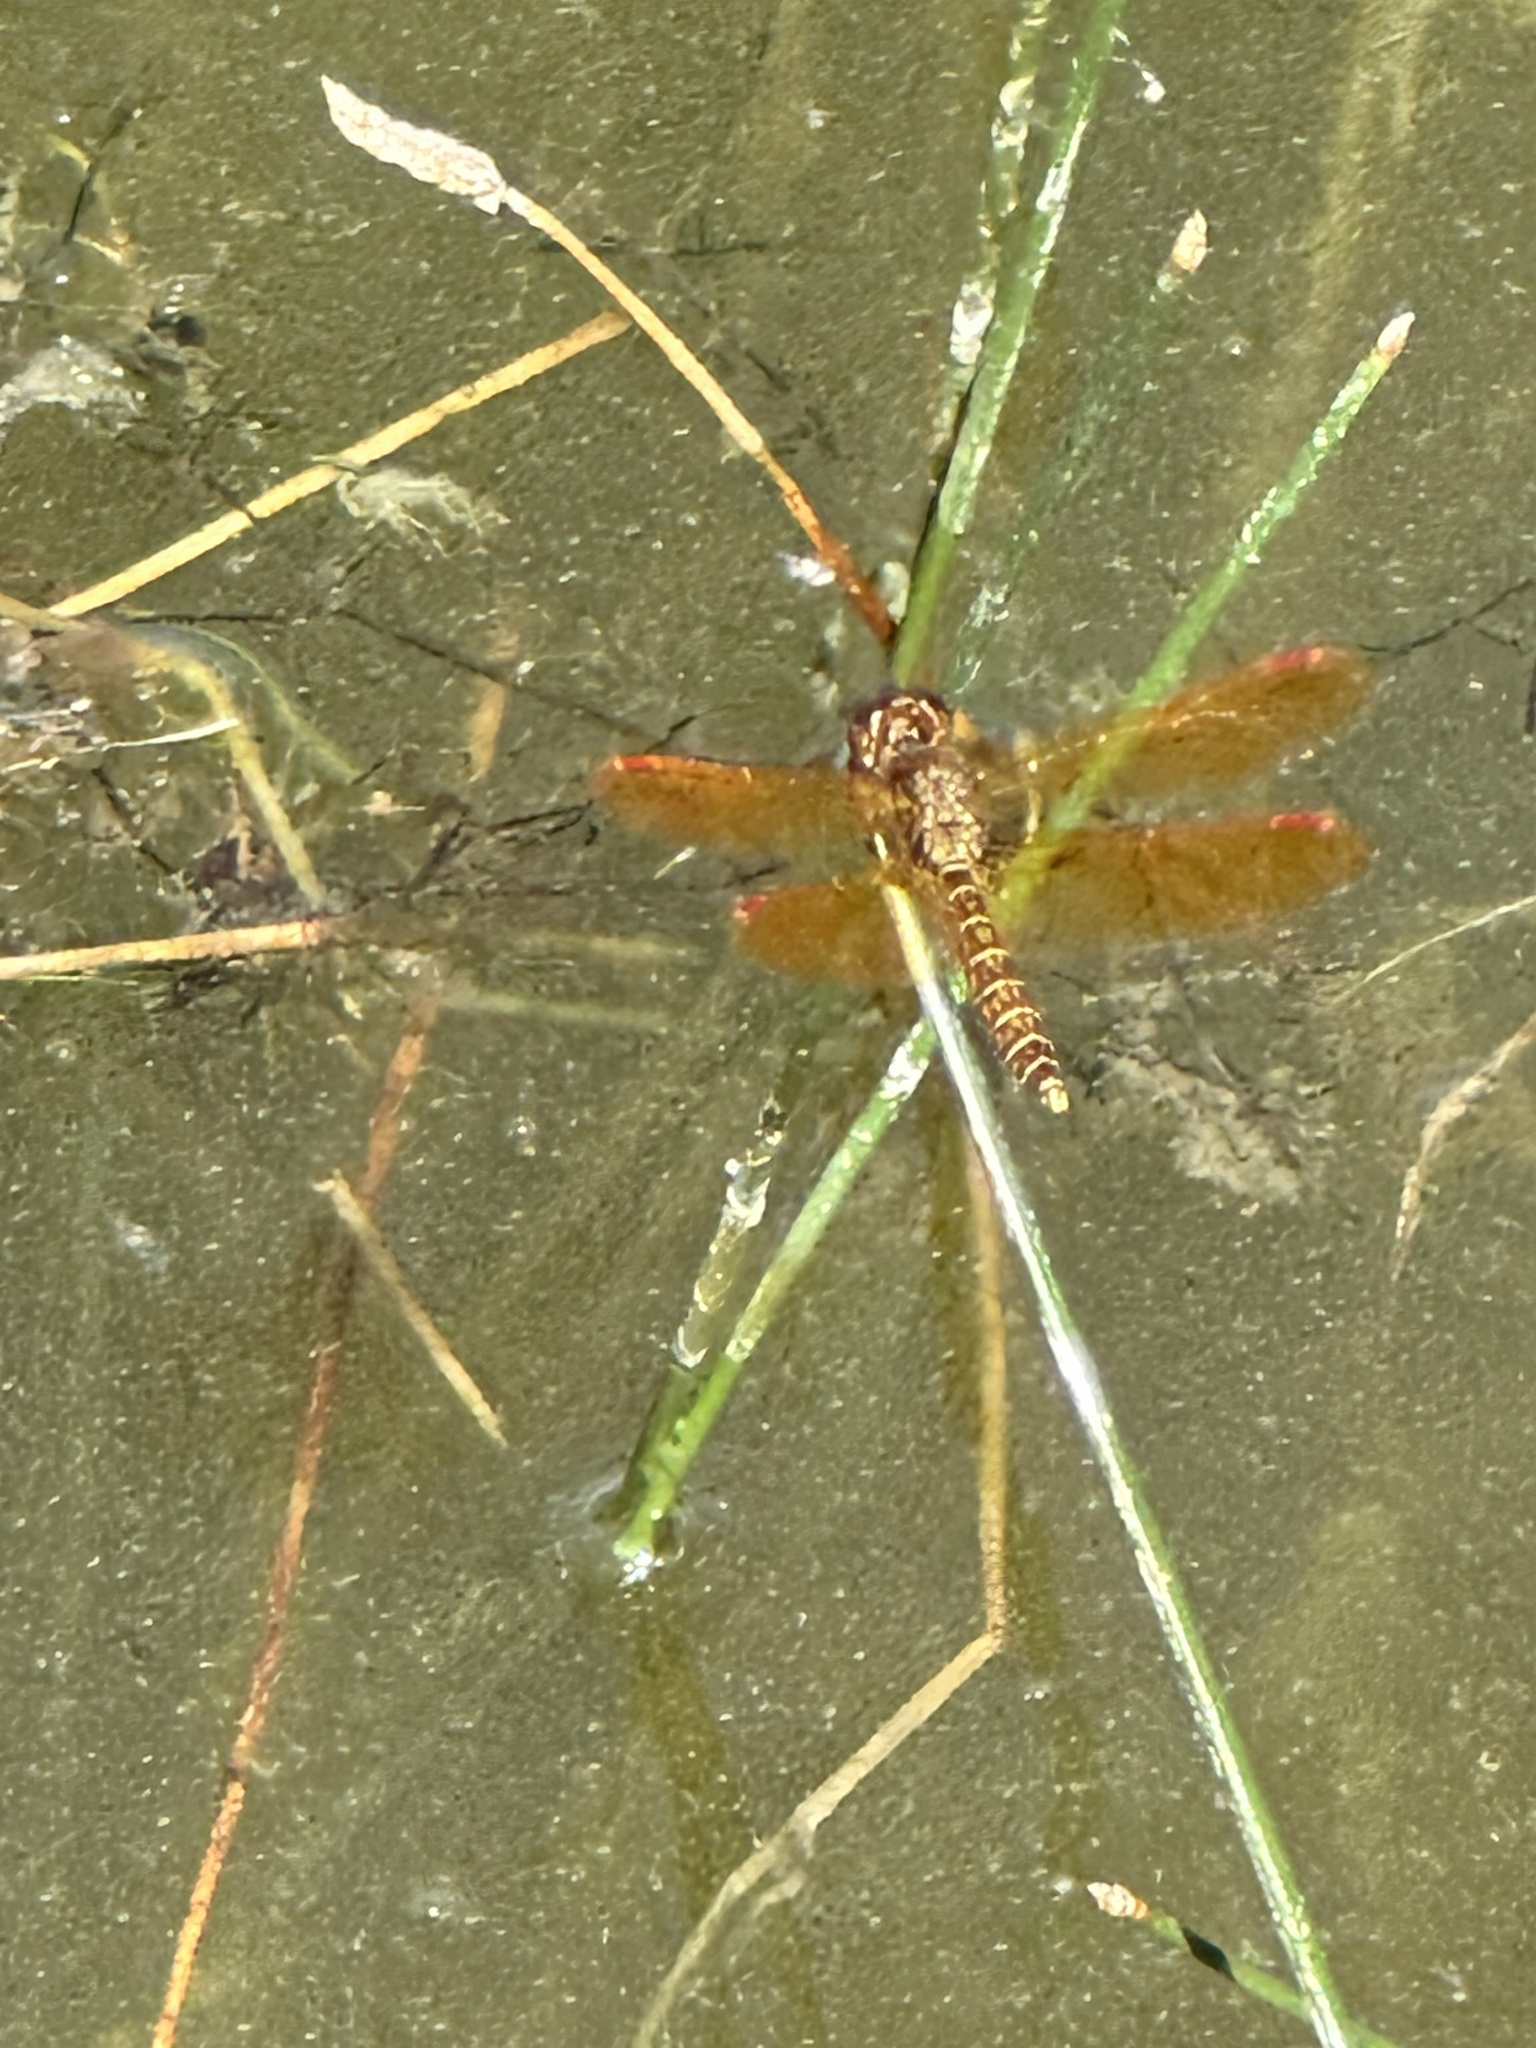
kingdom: Animalia
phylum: Arthropoda
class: Insecta
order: Odonata
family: Libellulidae
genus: Perithemis
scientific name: Perithemis tenera
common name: Eastern amberwing
